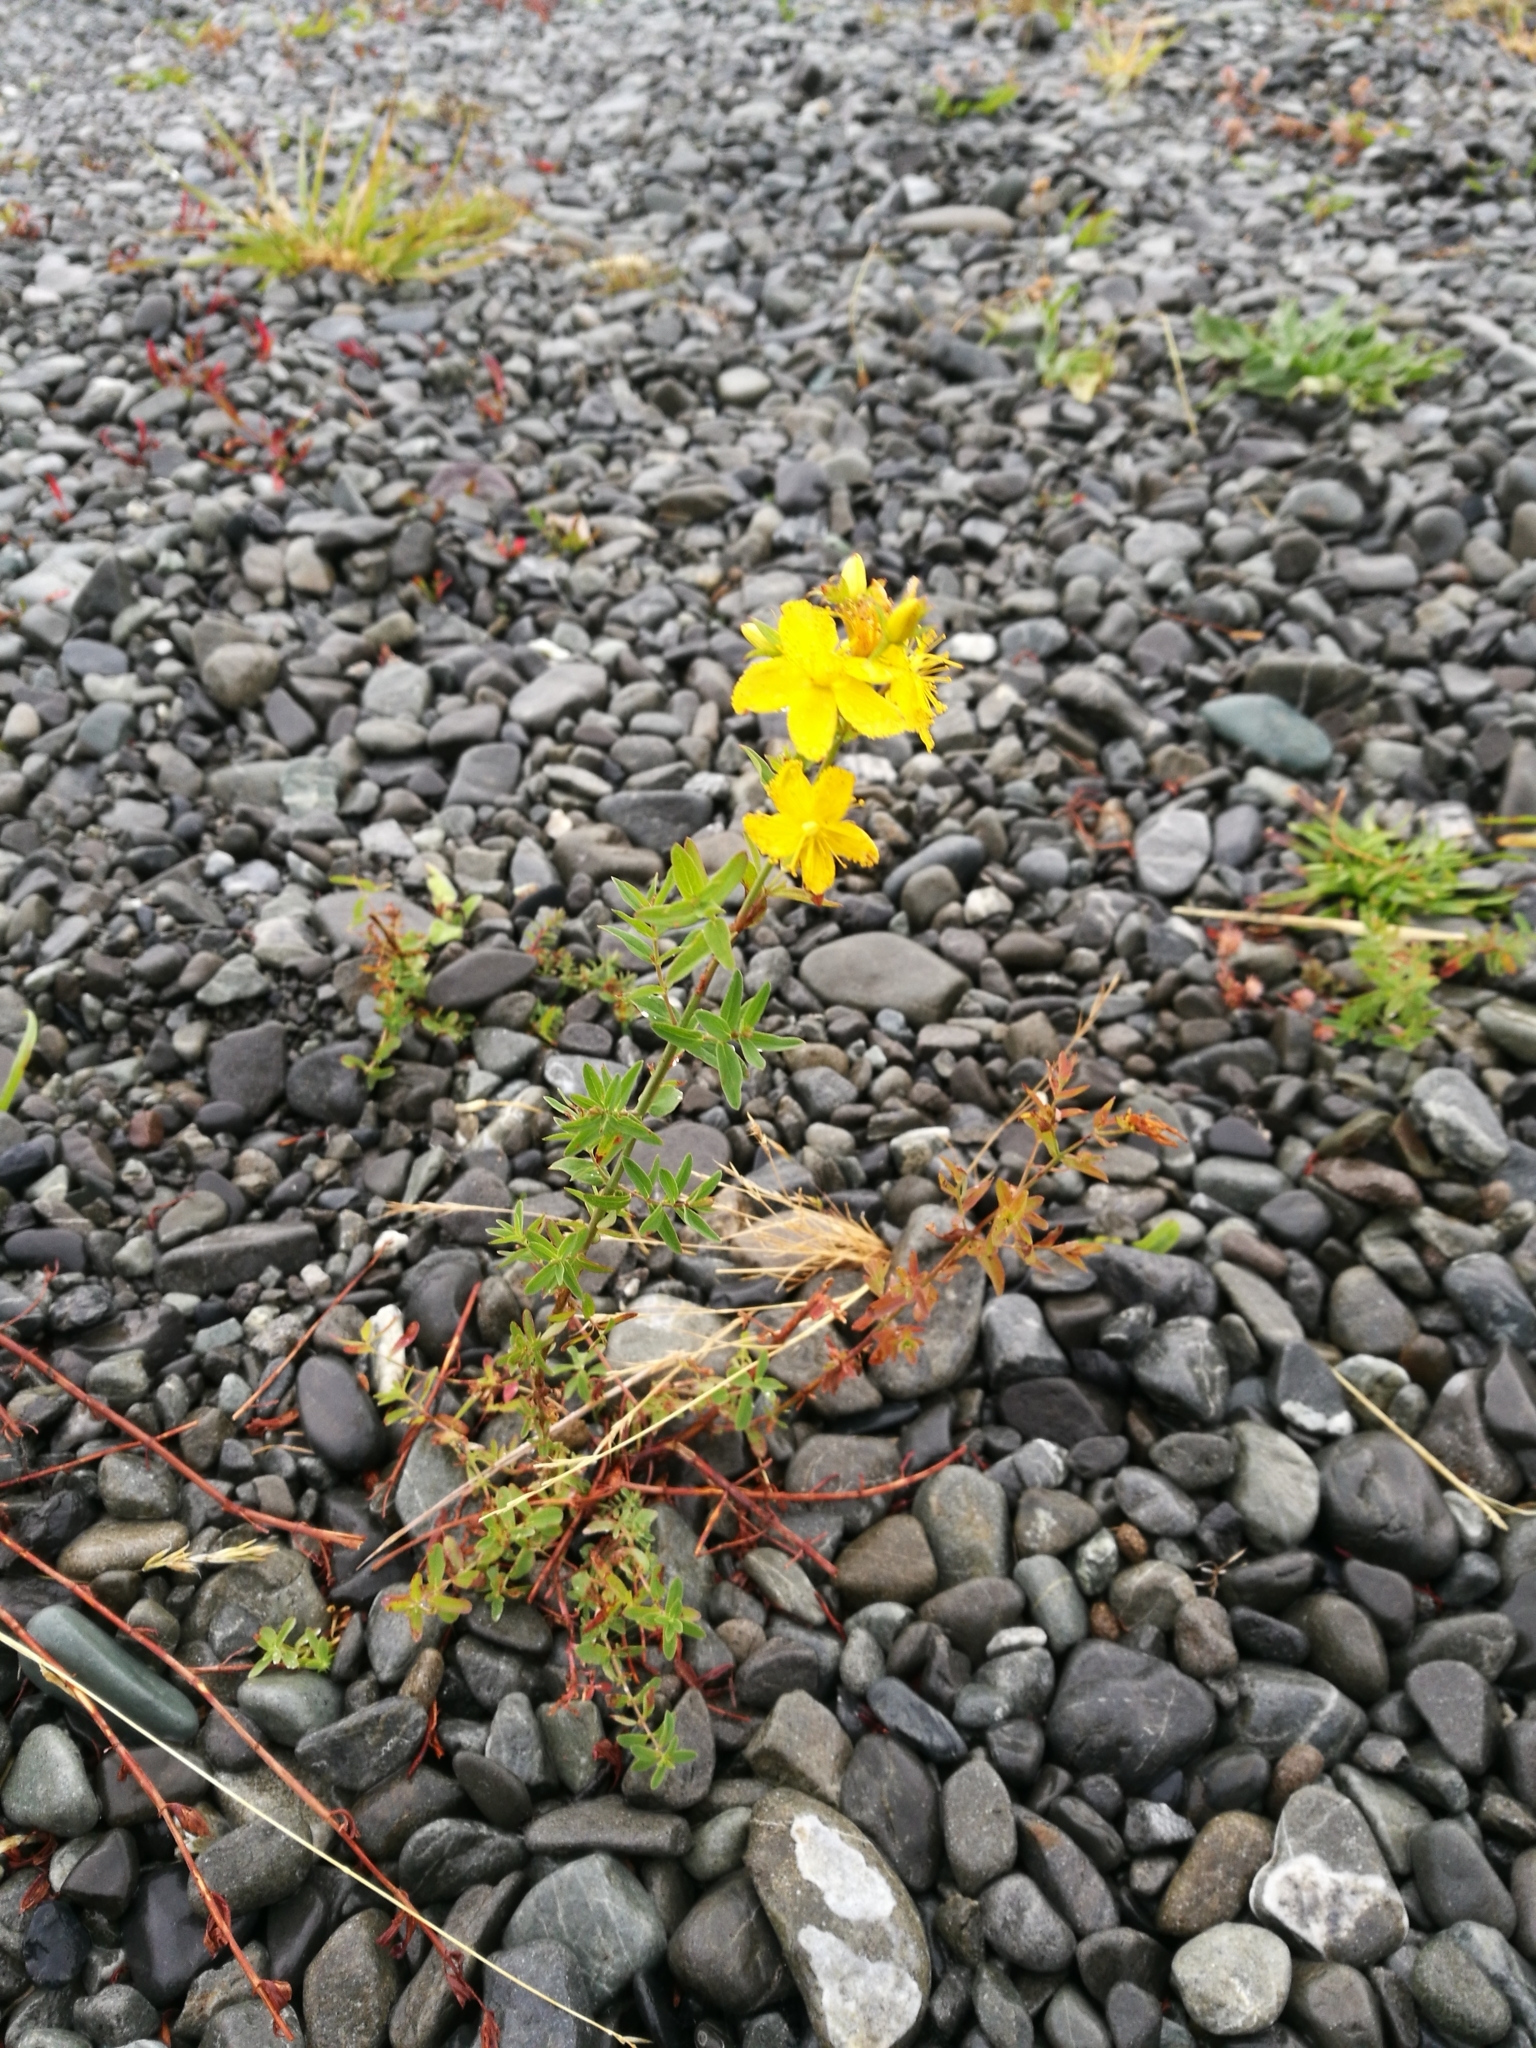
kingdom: Plantae
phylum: Tracheophyta
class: Magnoliopsida
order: Malpighiales
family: Hypericaceae
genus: Hypericum
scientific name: Hypericum perforatum
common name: Common st. johnswort
